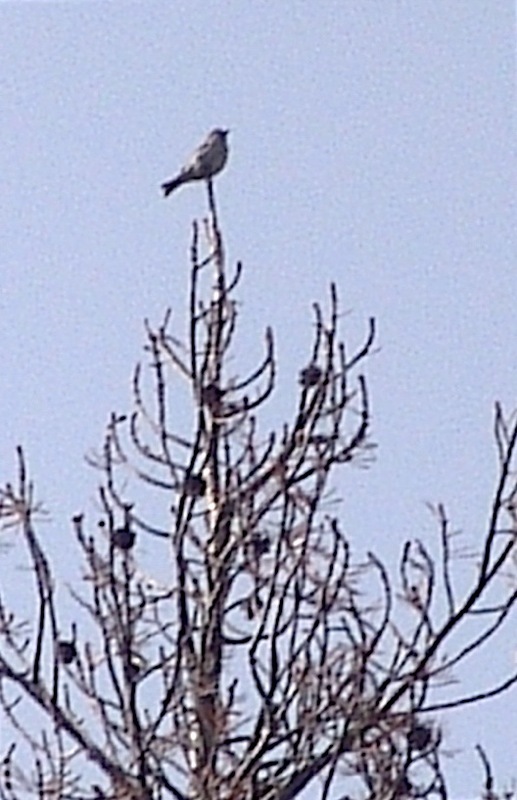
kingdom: Animalia
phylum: Chordata
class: Aves
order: Passeriformes
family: Fringillidae
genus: Haemorhous
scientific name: Haemorhous cassinii
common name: Cassin's finch
